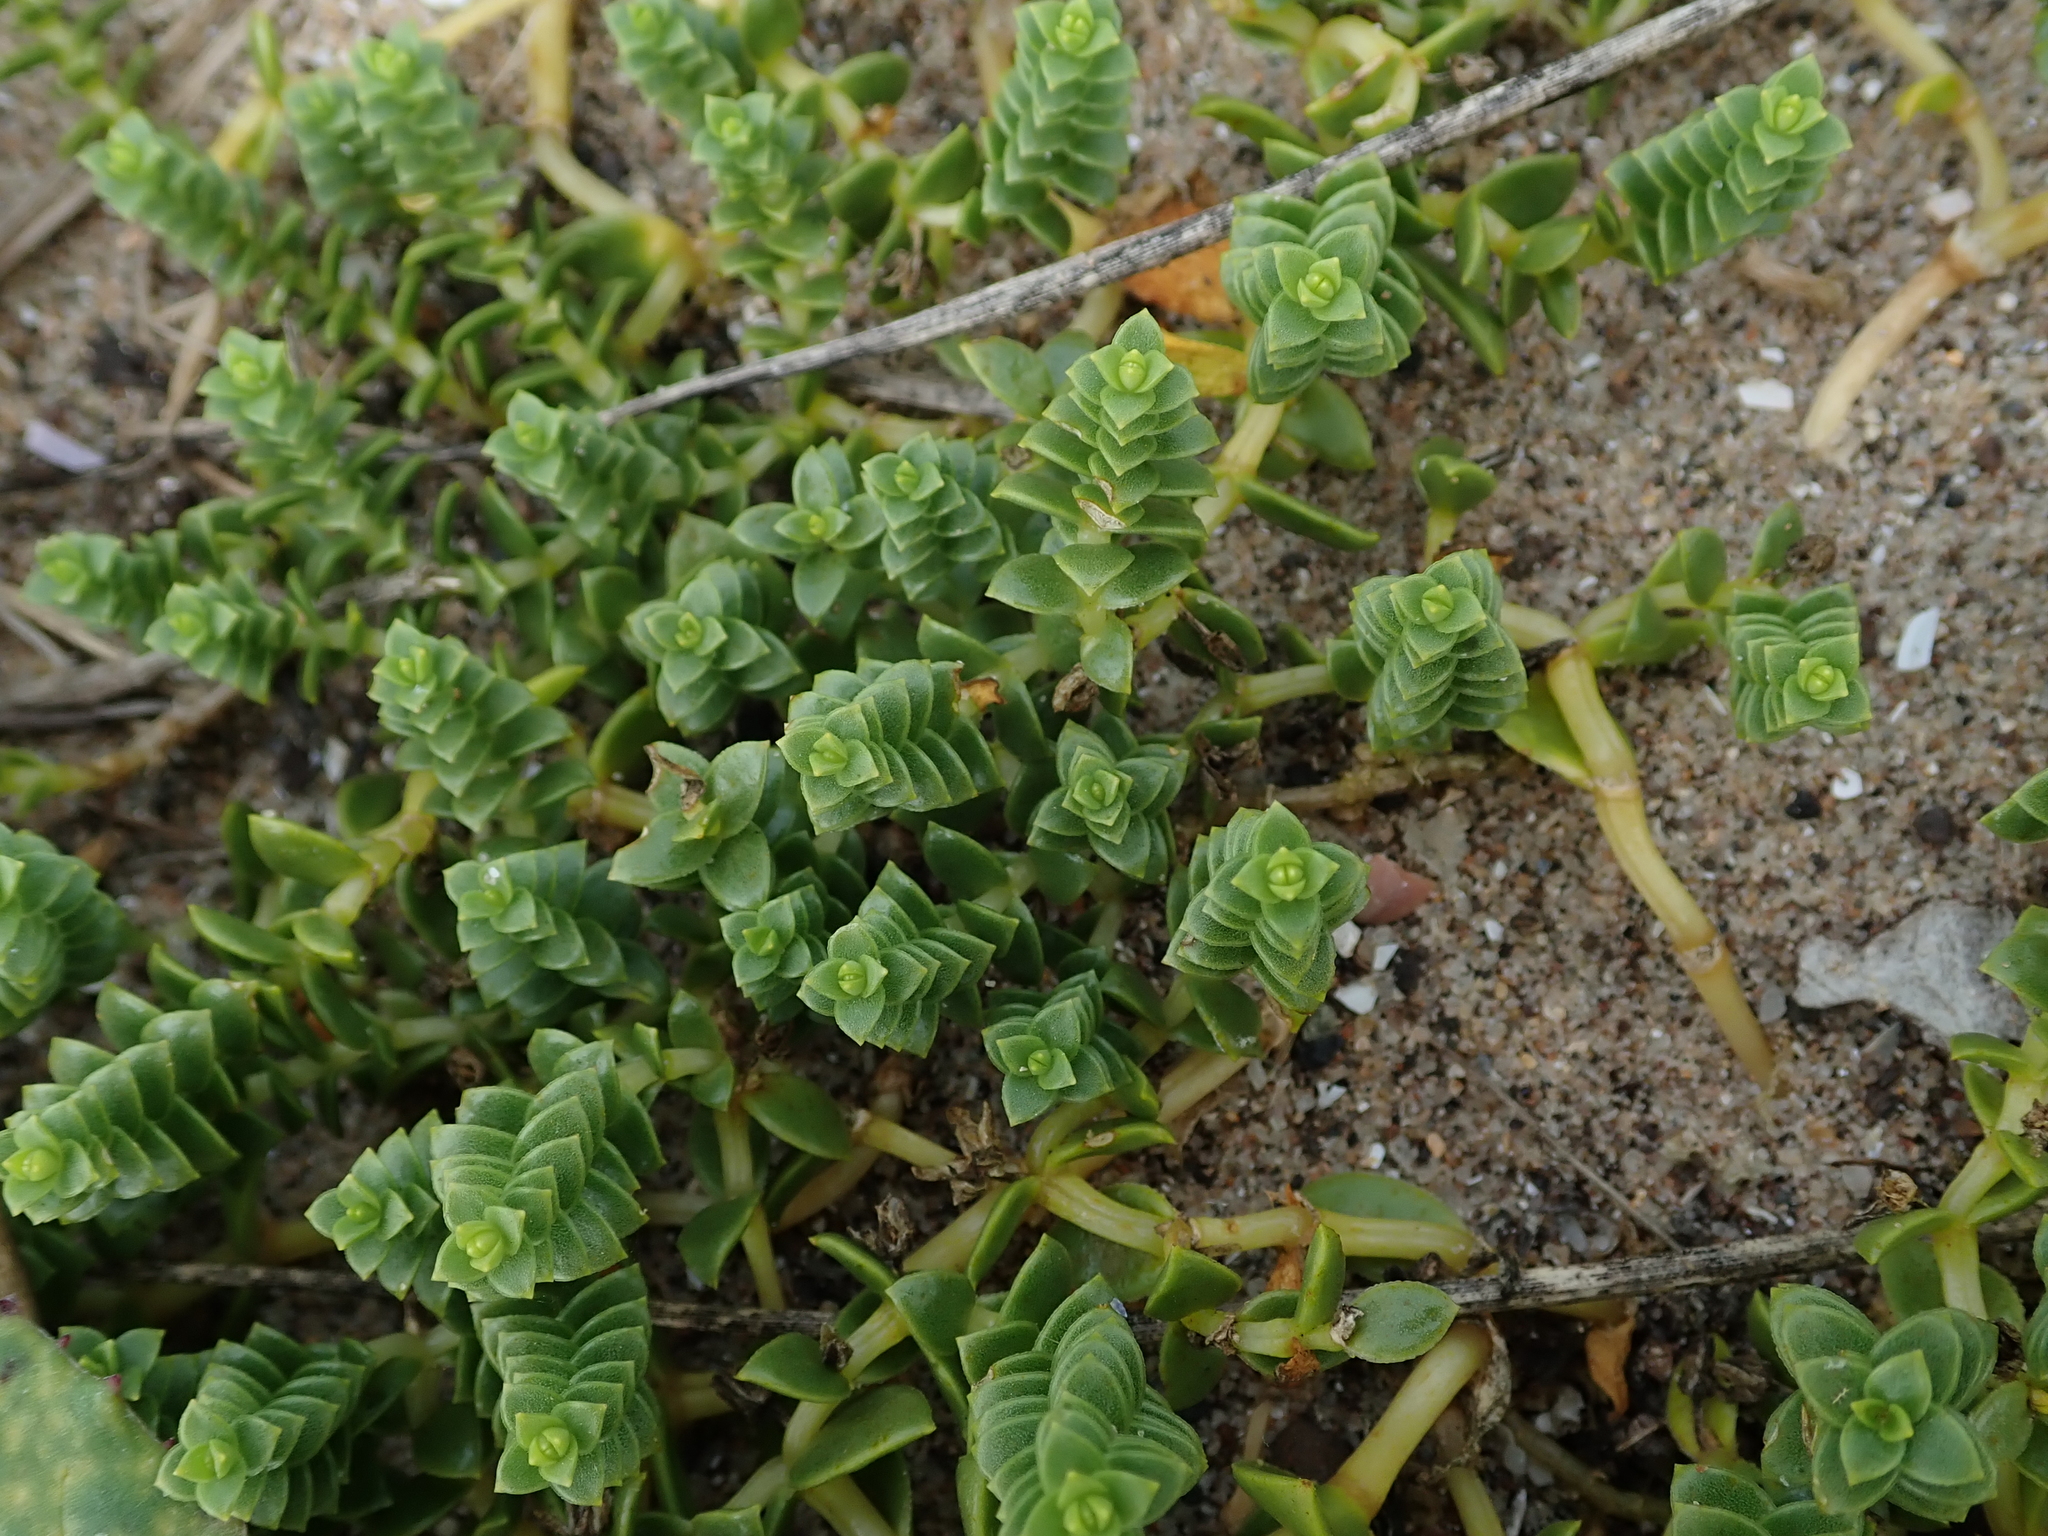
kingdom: Plantae
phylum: Tracheophyta
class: Magnoliopsida
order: Caryophyllales
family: Caryophyllaceae
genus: Honckenya
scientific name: Honckenya peploides
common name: Sea sandwort
